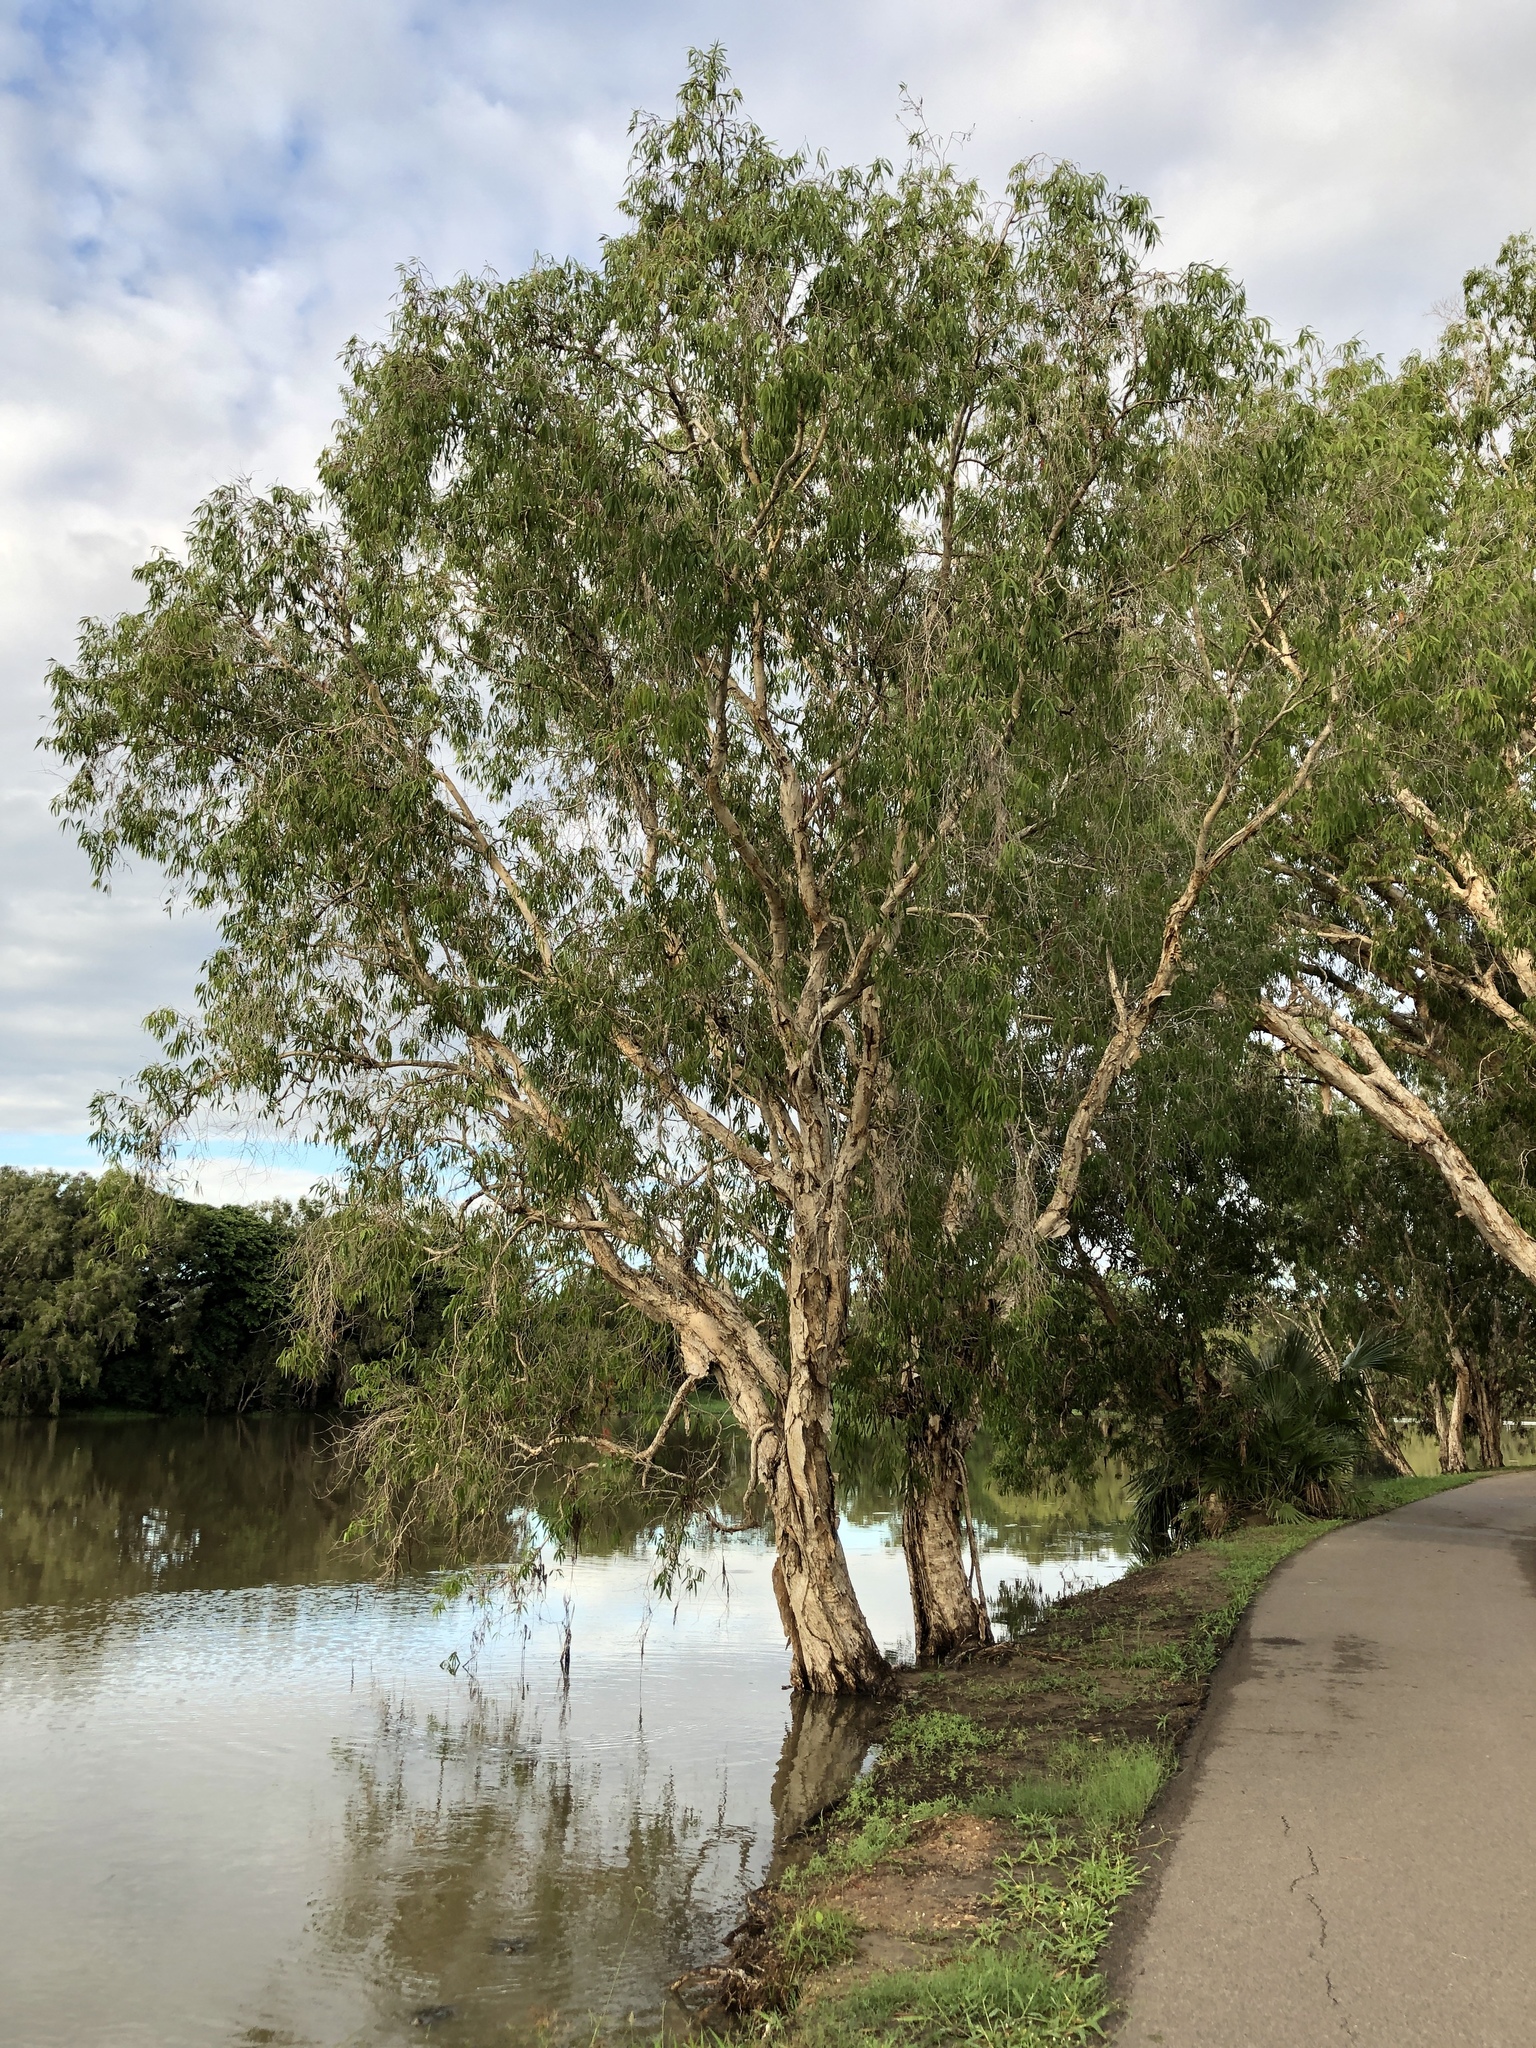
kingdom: Plantae
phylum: Tracheophyta
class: Magnoliopsida
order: Myrtales
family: Myrtaceae
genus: Melaleuca
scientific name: Melaleuca leucadendra
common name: Weeping paperbark
